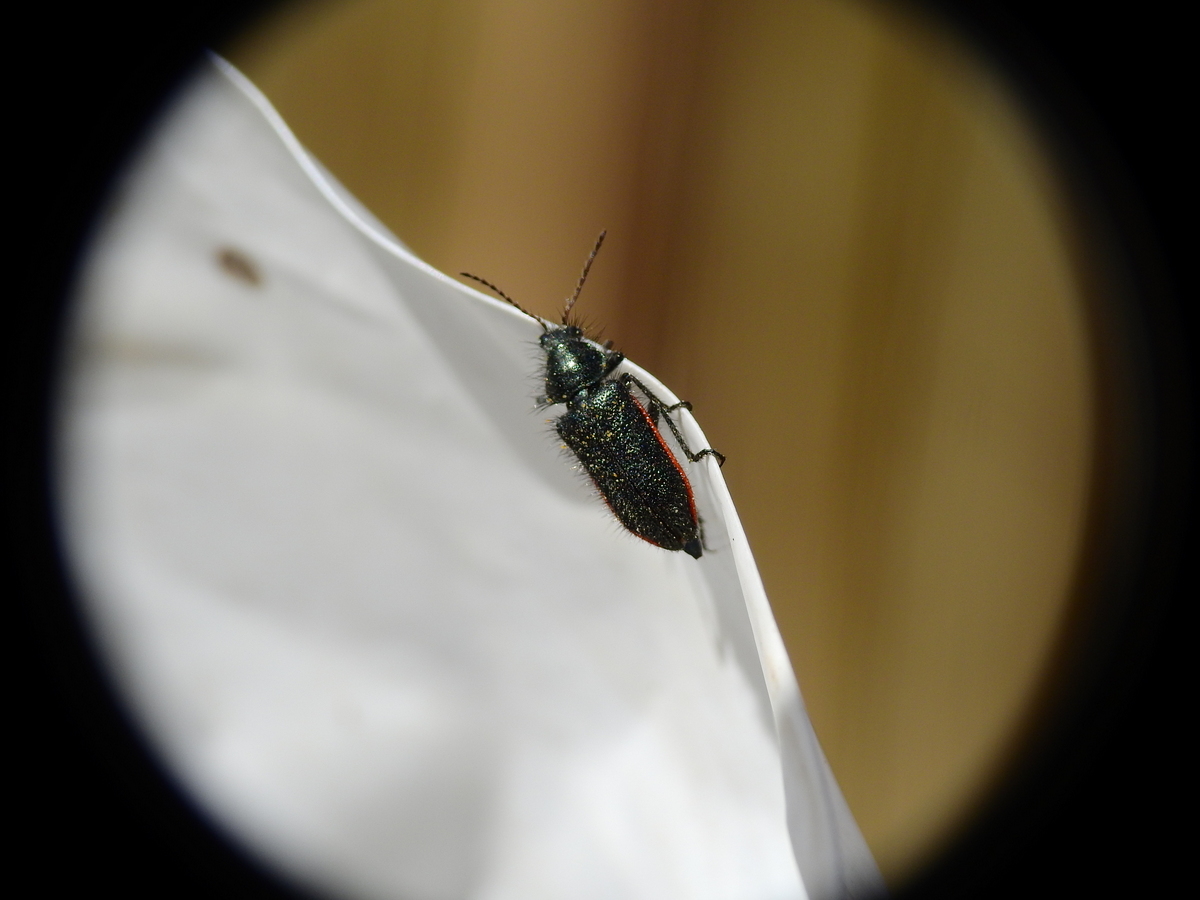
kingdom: Animalia
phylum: Arthropoda
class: Insecta
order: Coleoptera
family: Melyridae
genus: Astylus
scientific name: Astylus
